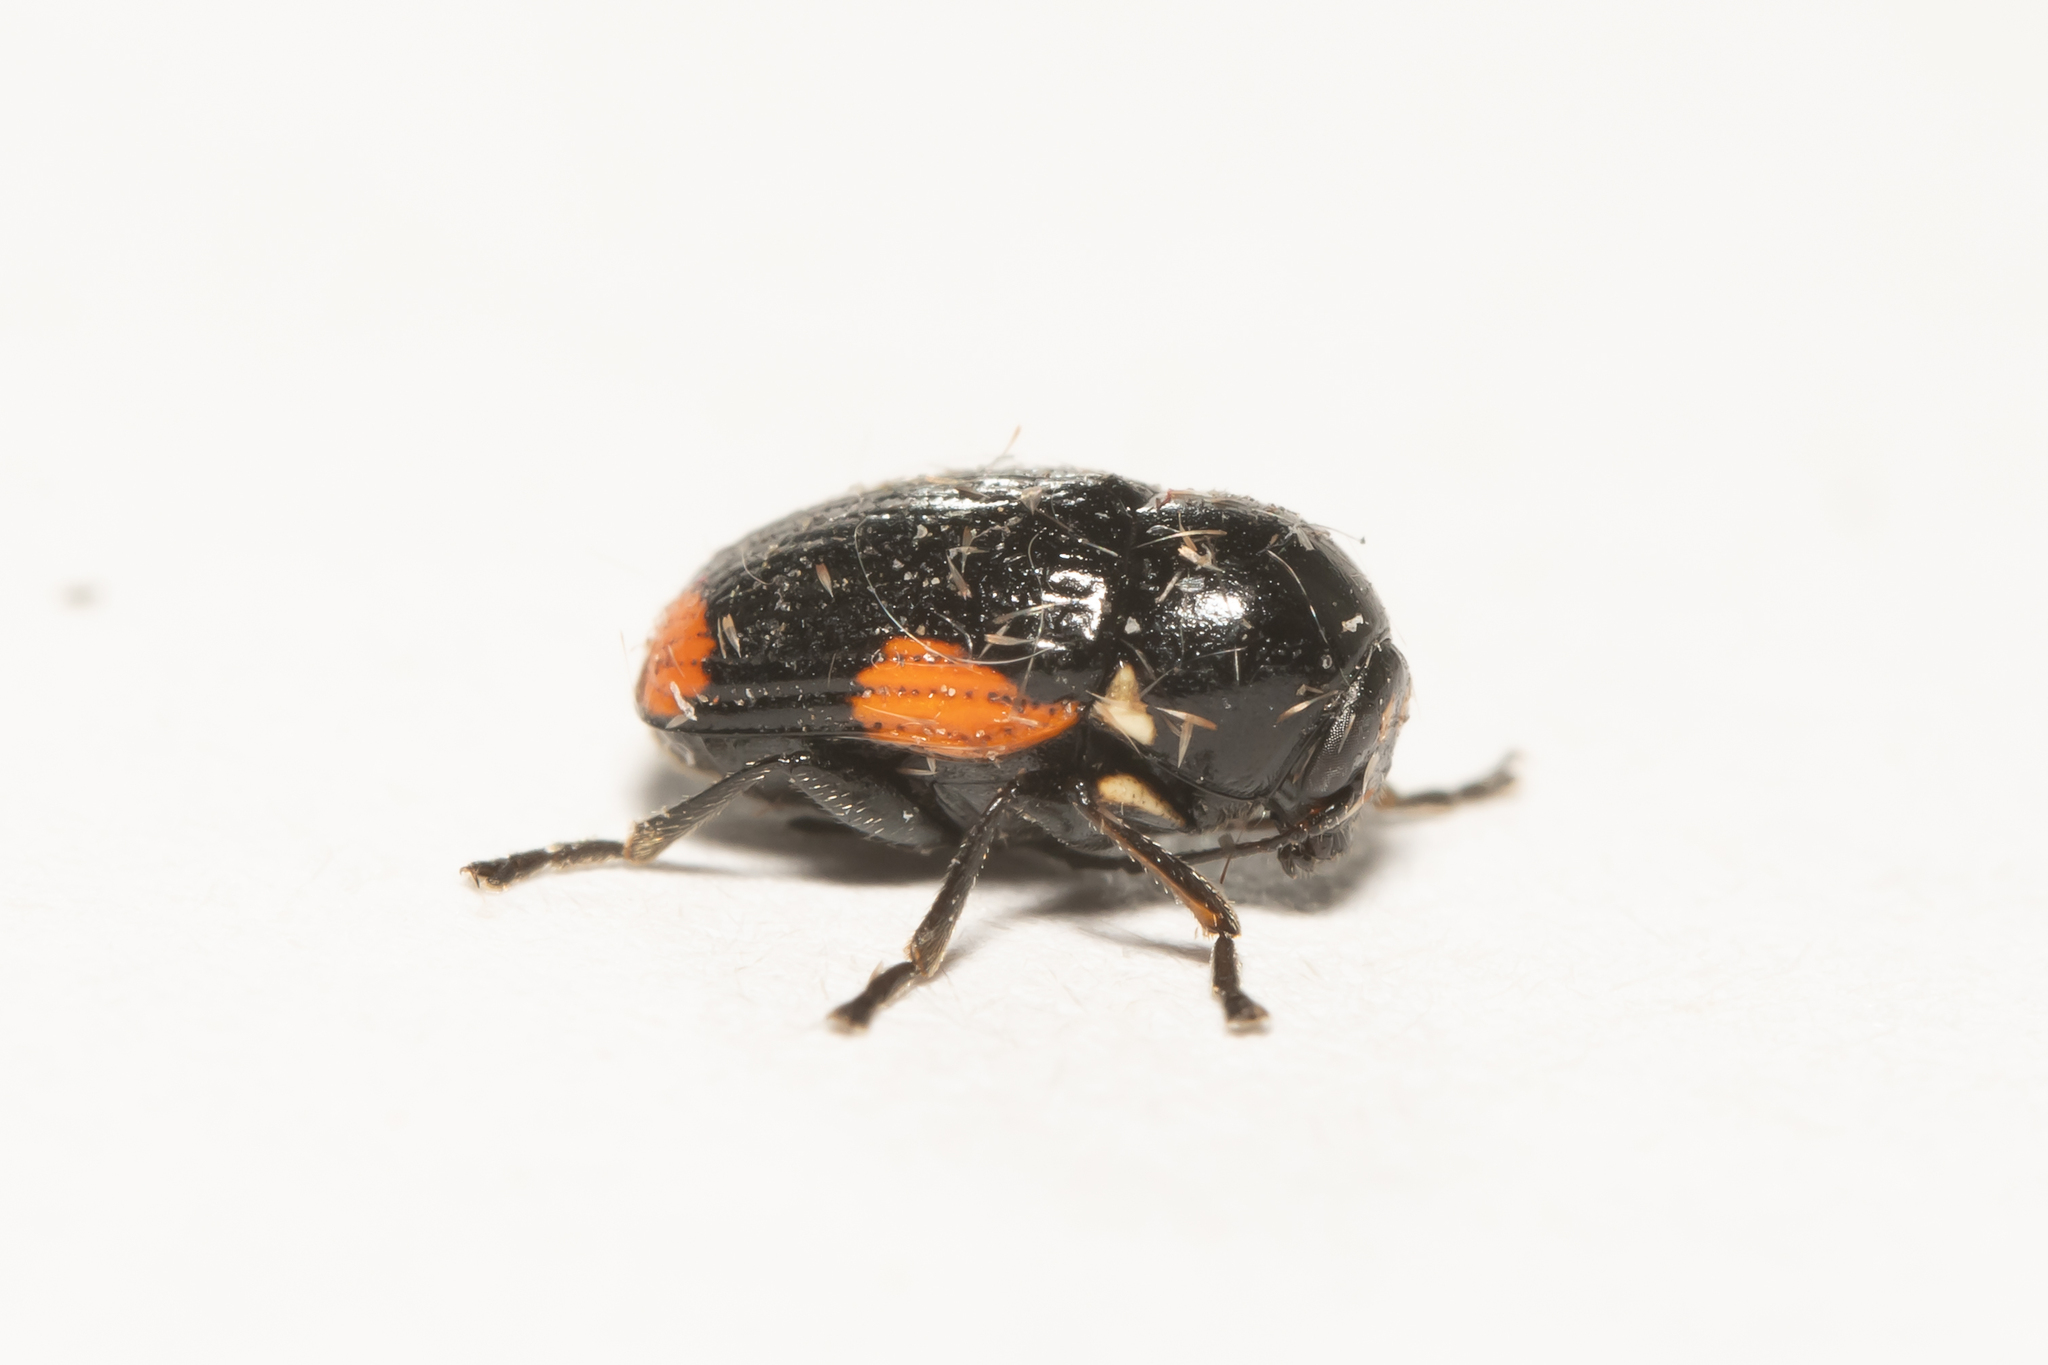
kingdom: Animalia
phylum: Arthropoda
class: Insecta
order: Coleoptera
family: Chrysomelidae
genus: Cryptocephalus
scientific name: Cryptocephalus moraei
